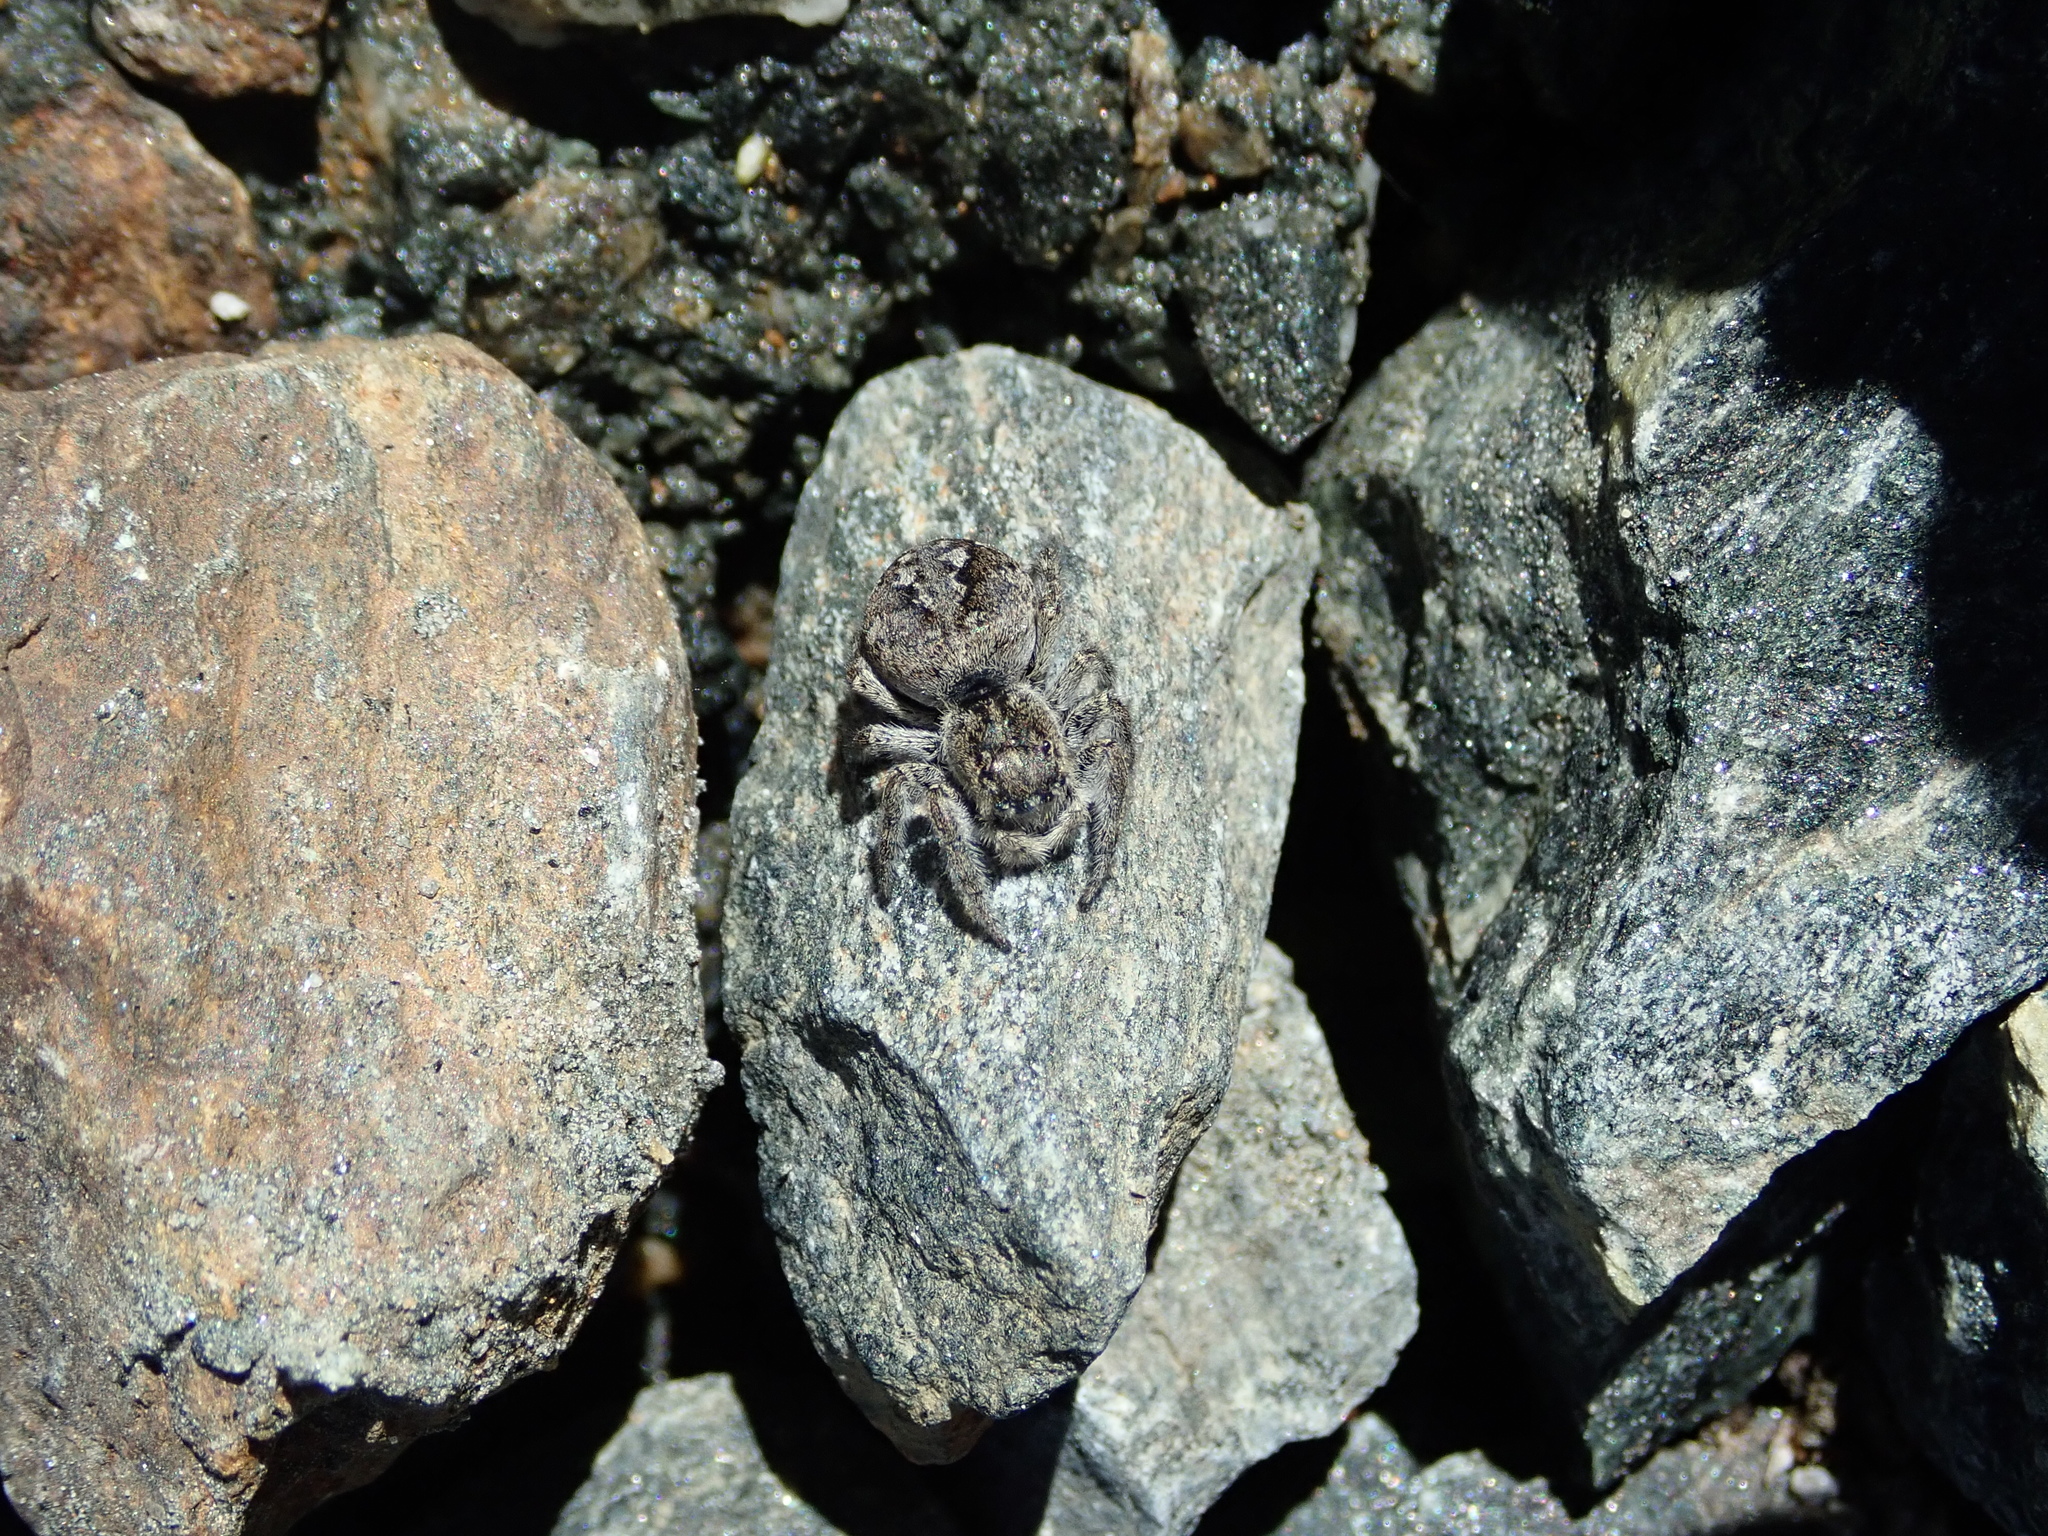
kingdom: Animalia
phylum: Arthropoda
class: Arachnida
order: Araneae
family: Salticidae
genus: Attulus
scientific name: Attulus longipes
